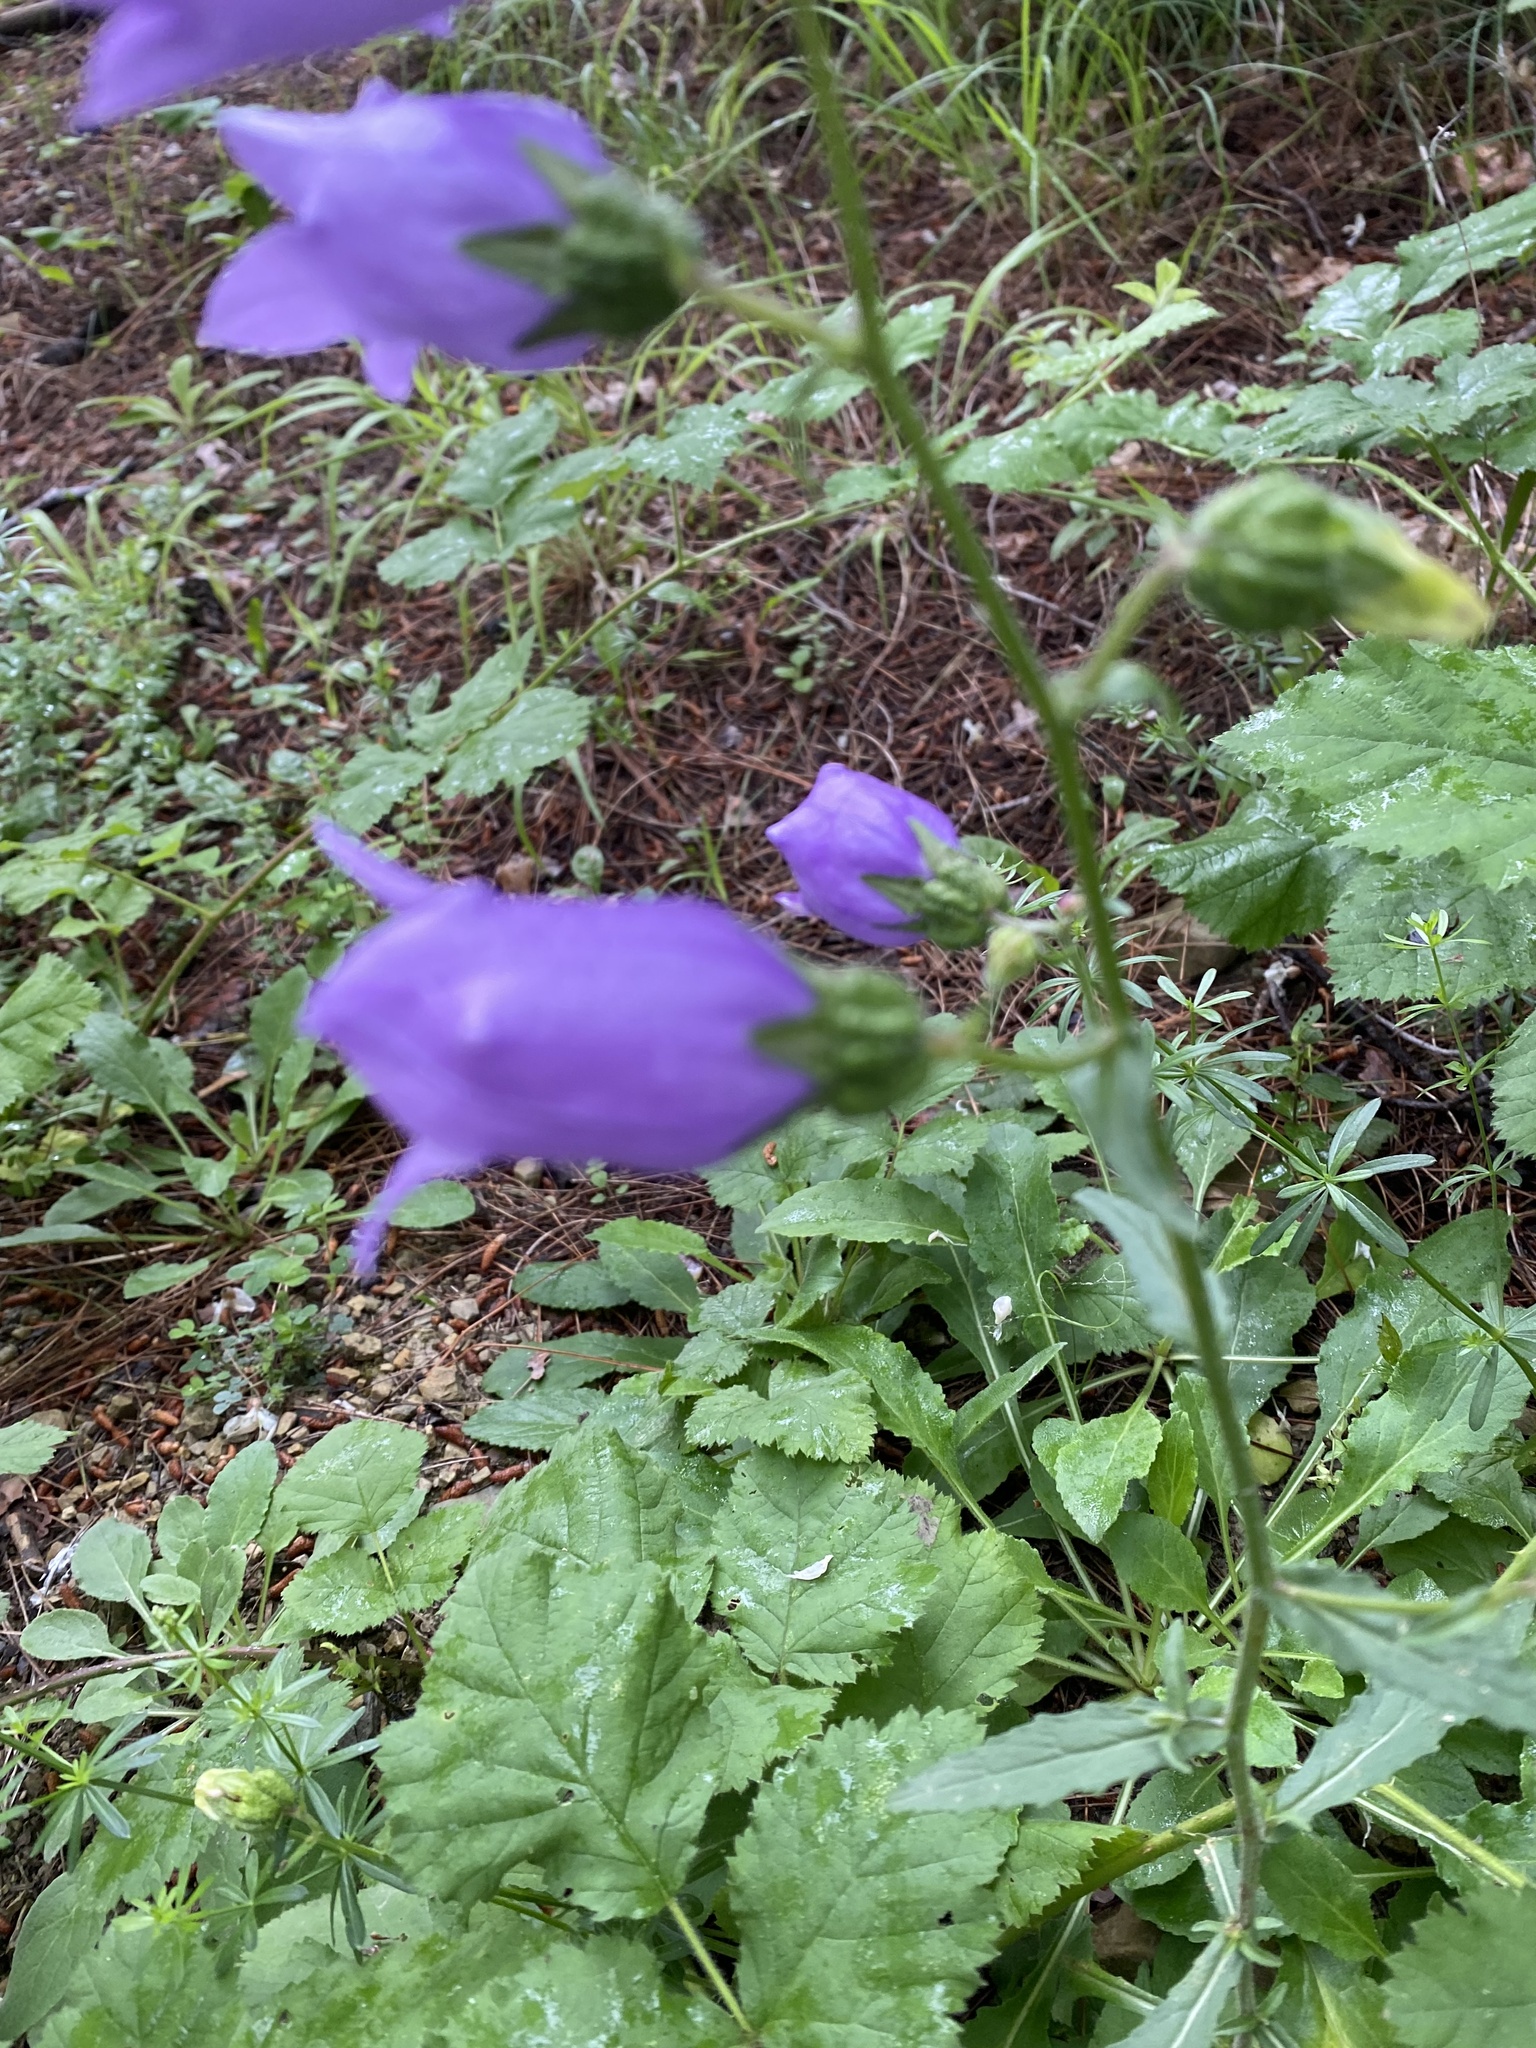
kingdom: Plantae
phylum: Tracheophyta
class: Magnoliopsida
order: Asterales
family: Campanulaceae
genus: Campanula
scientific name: Campanula komarovii
